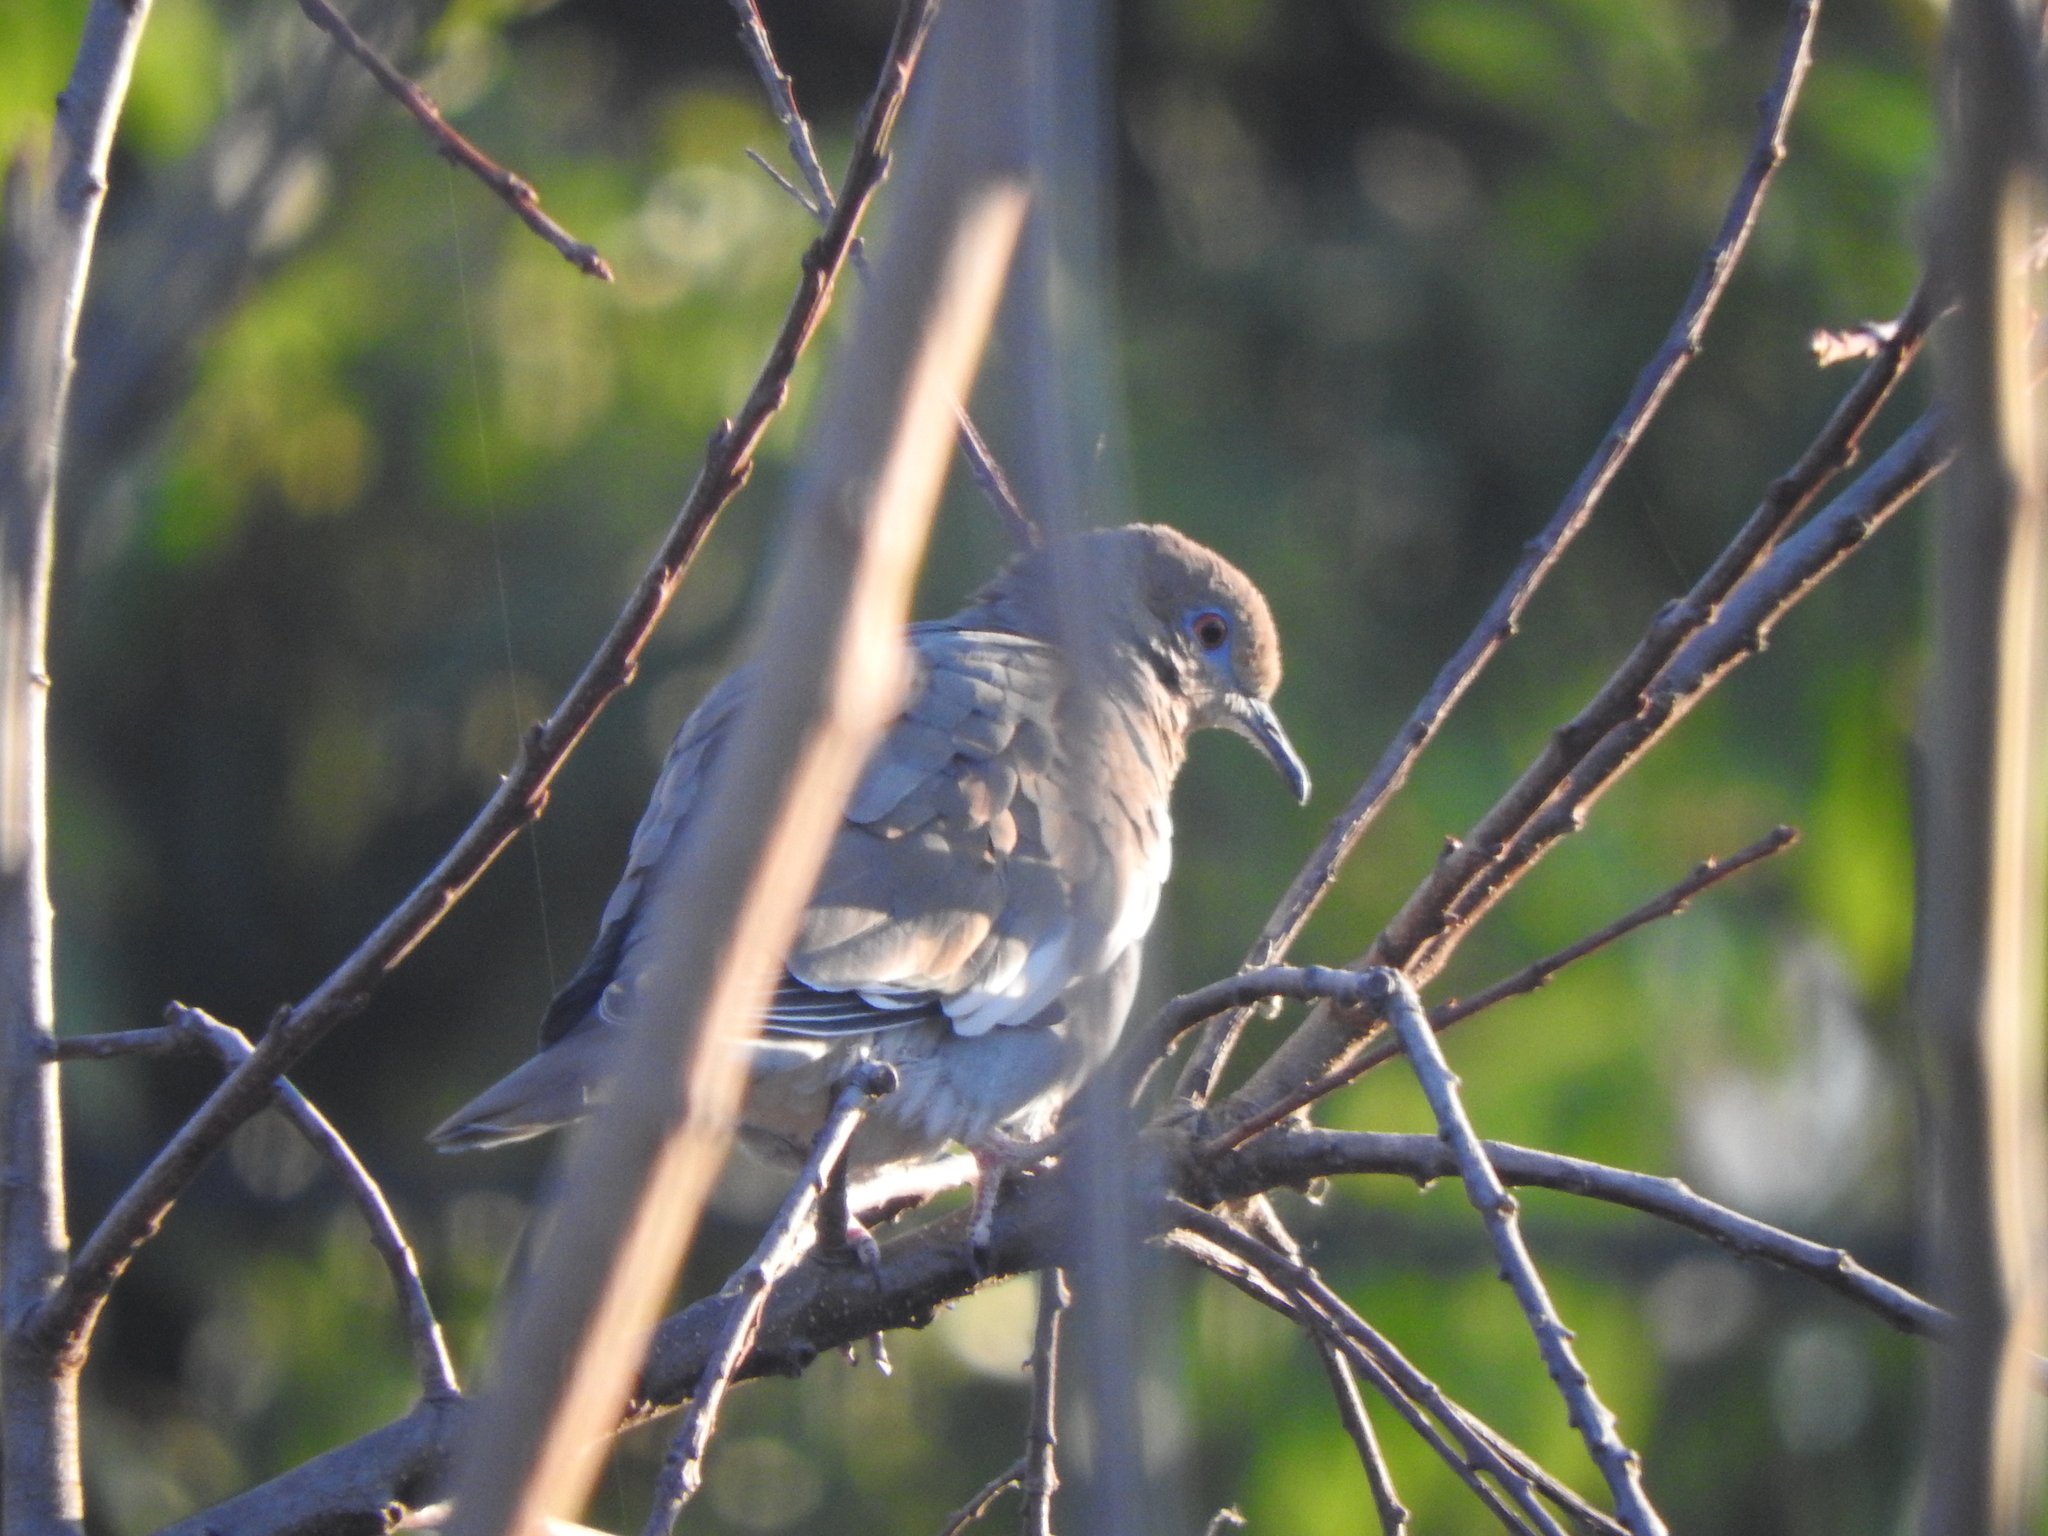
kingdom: Animalia
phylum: Chordata
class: Aves
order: Columbiformes
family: Columbidae
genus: Zenaida
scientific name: Zenaida asiatica
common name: White-winged dove
